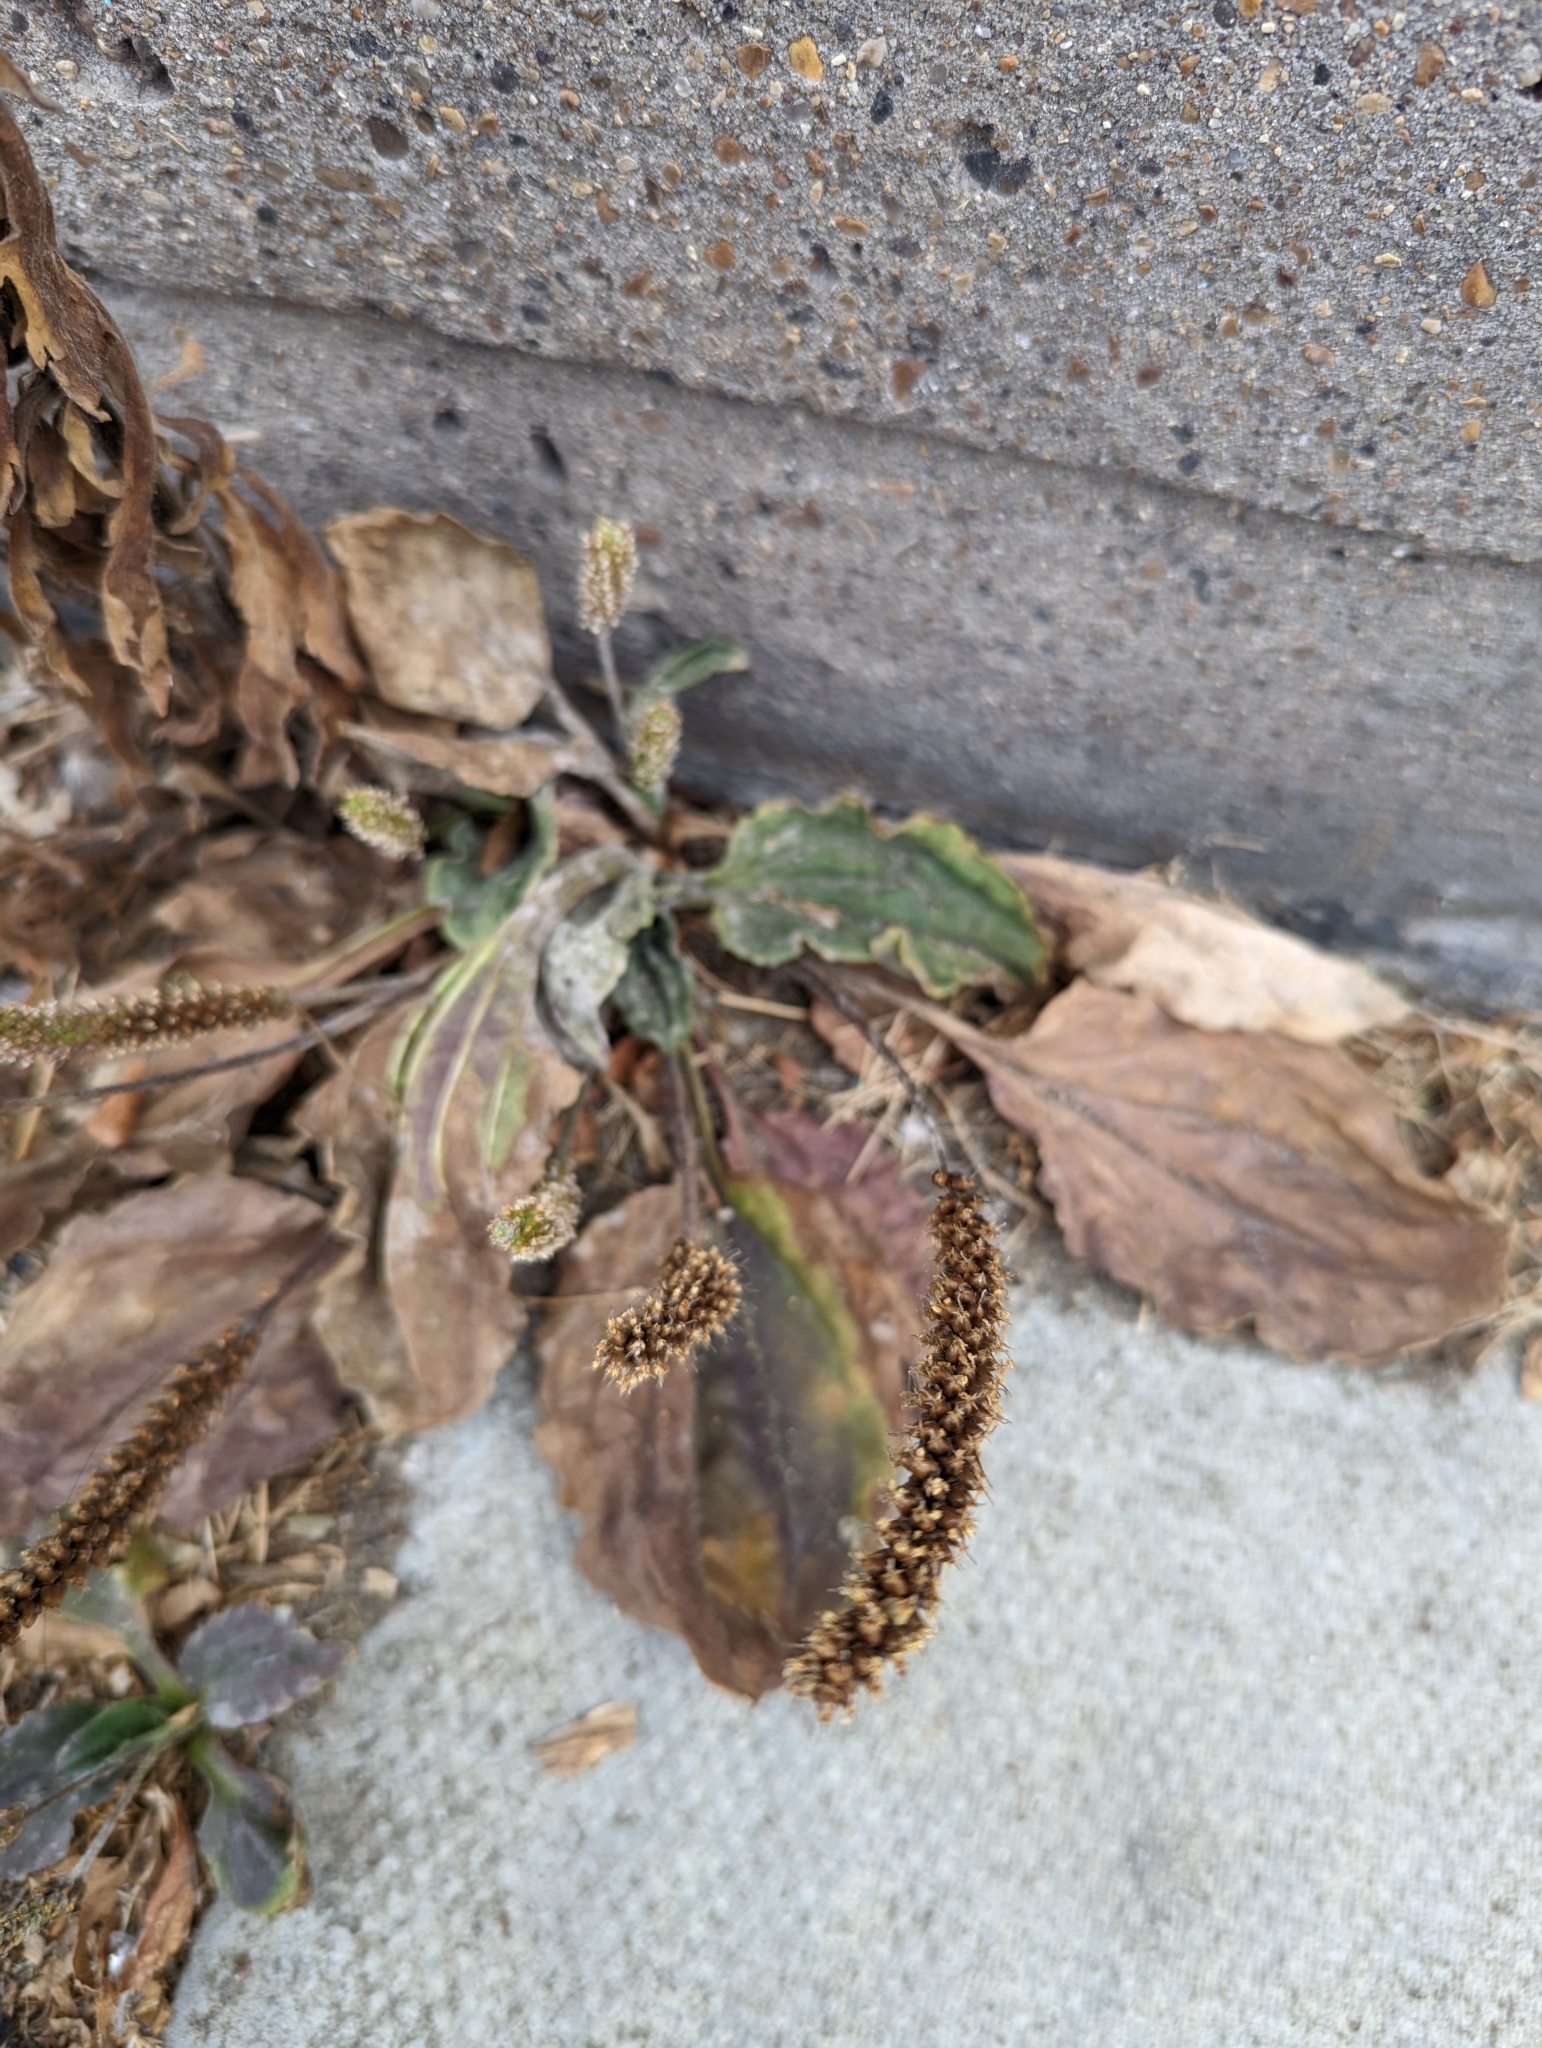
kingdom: Plantae
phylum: Tracheophyta
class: Magnoliopsida
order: Lamiales
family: Plantaginaceae
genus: Plantago
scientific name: Plantago major
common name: Common plantain
